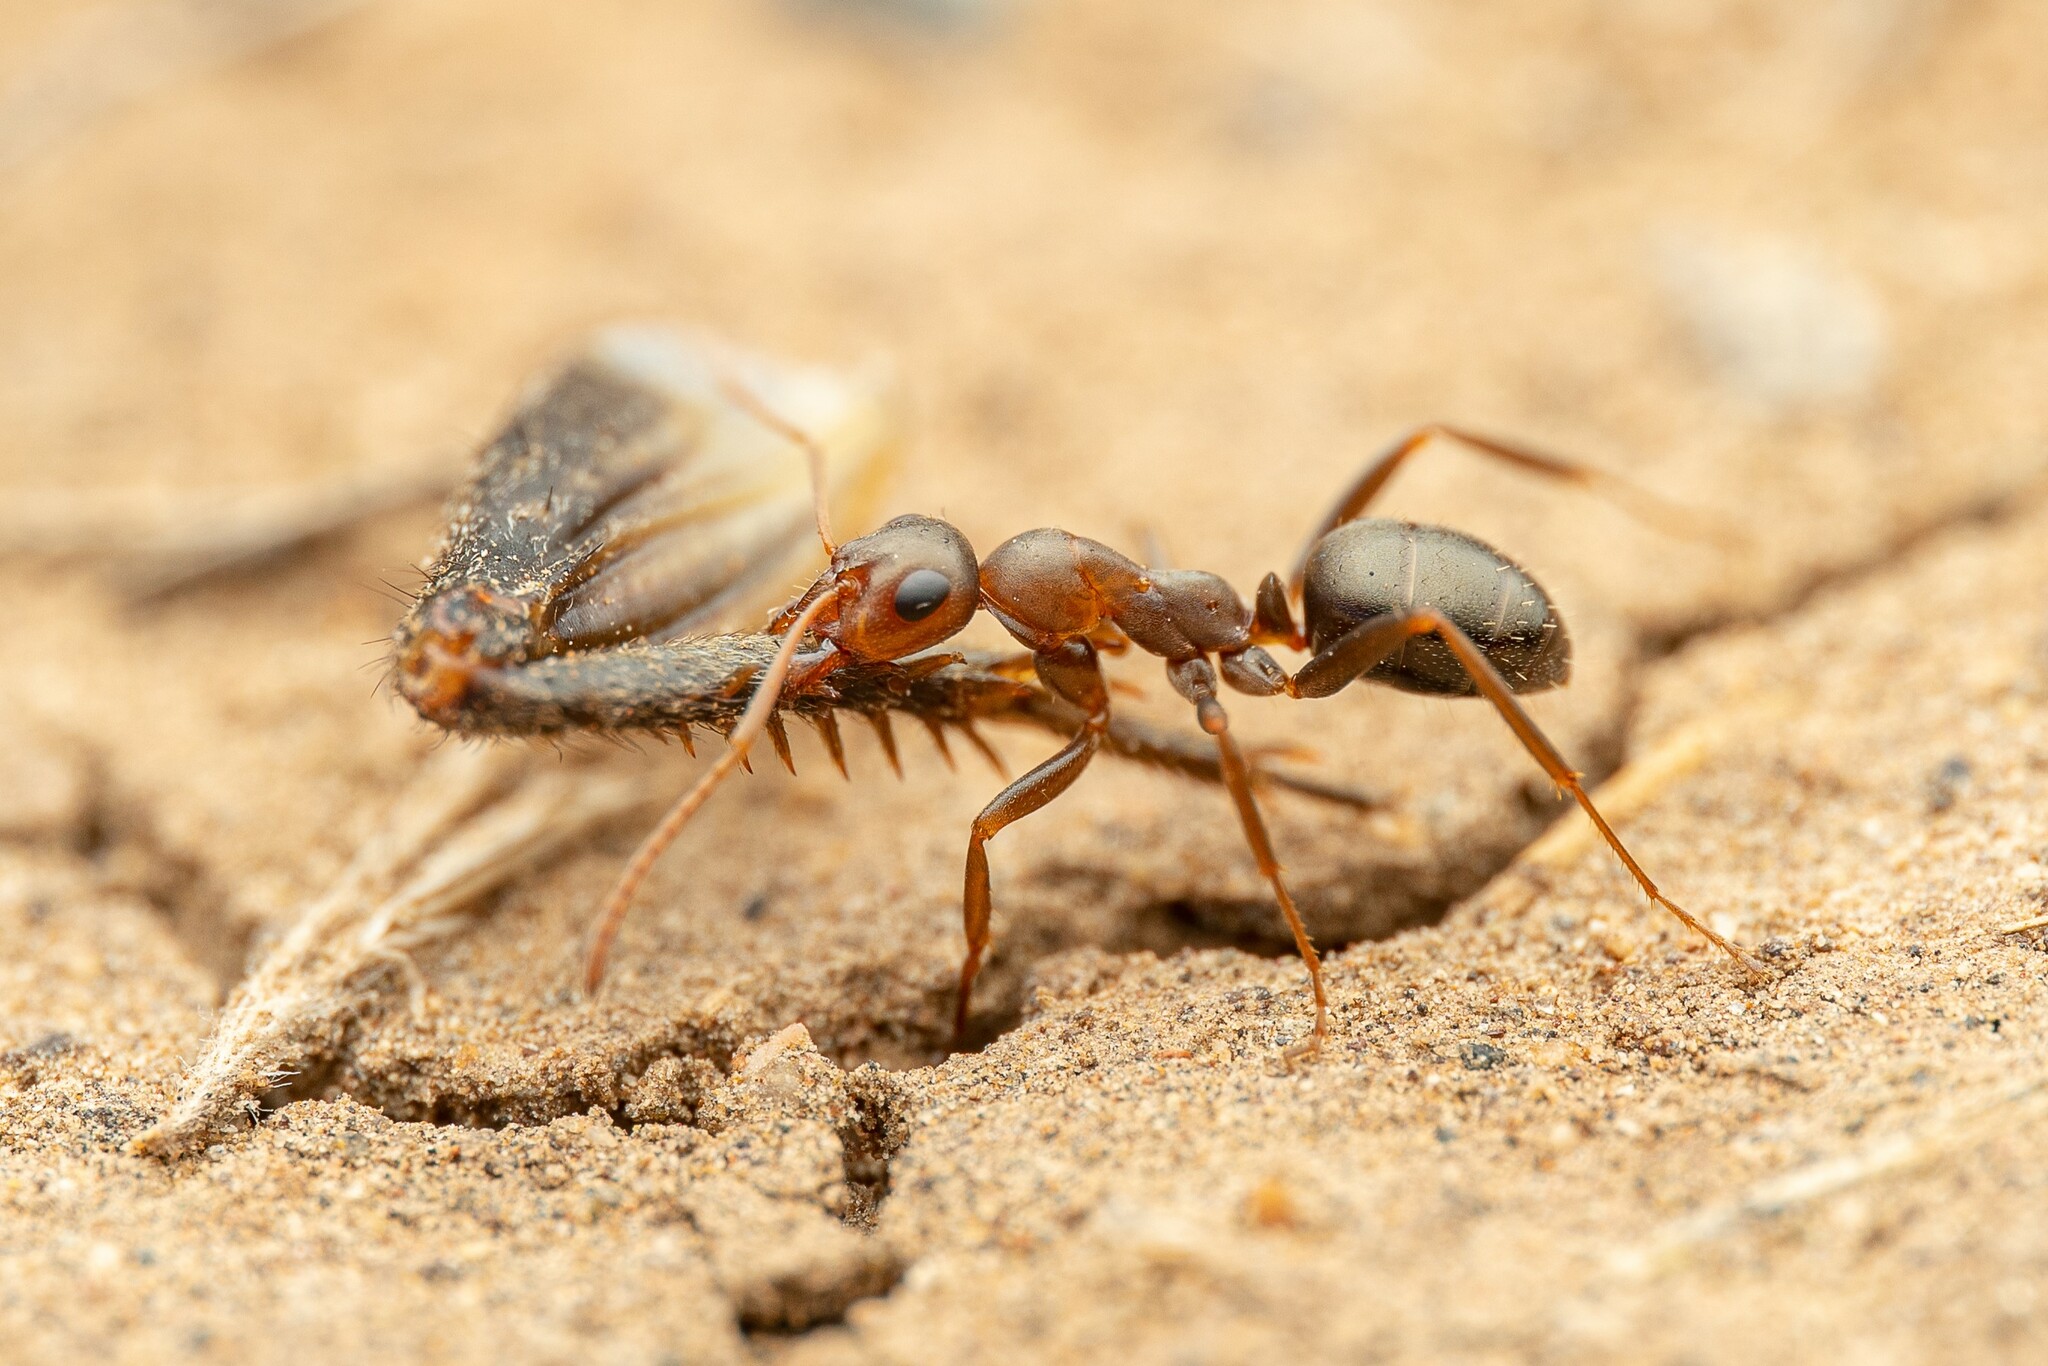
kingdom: Animalia
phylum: Arthropoda
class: Insecta
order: Hymenoptera
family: Formicidae
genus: Formica
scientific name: Formica gnava
